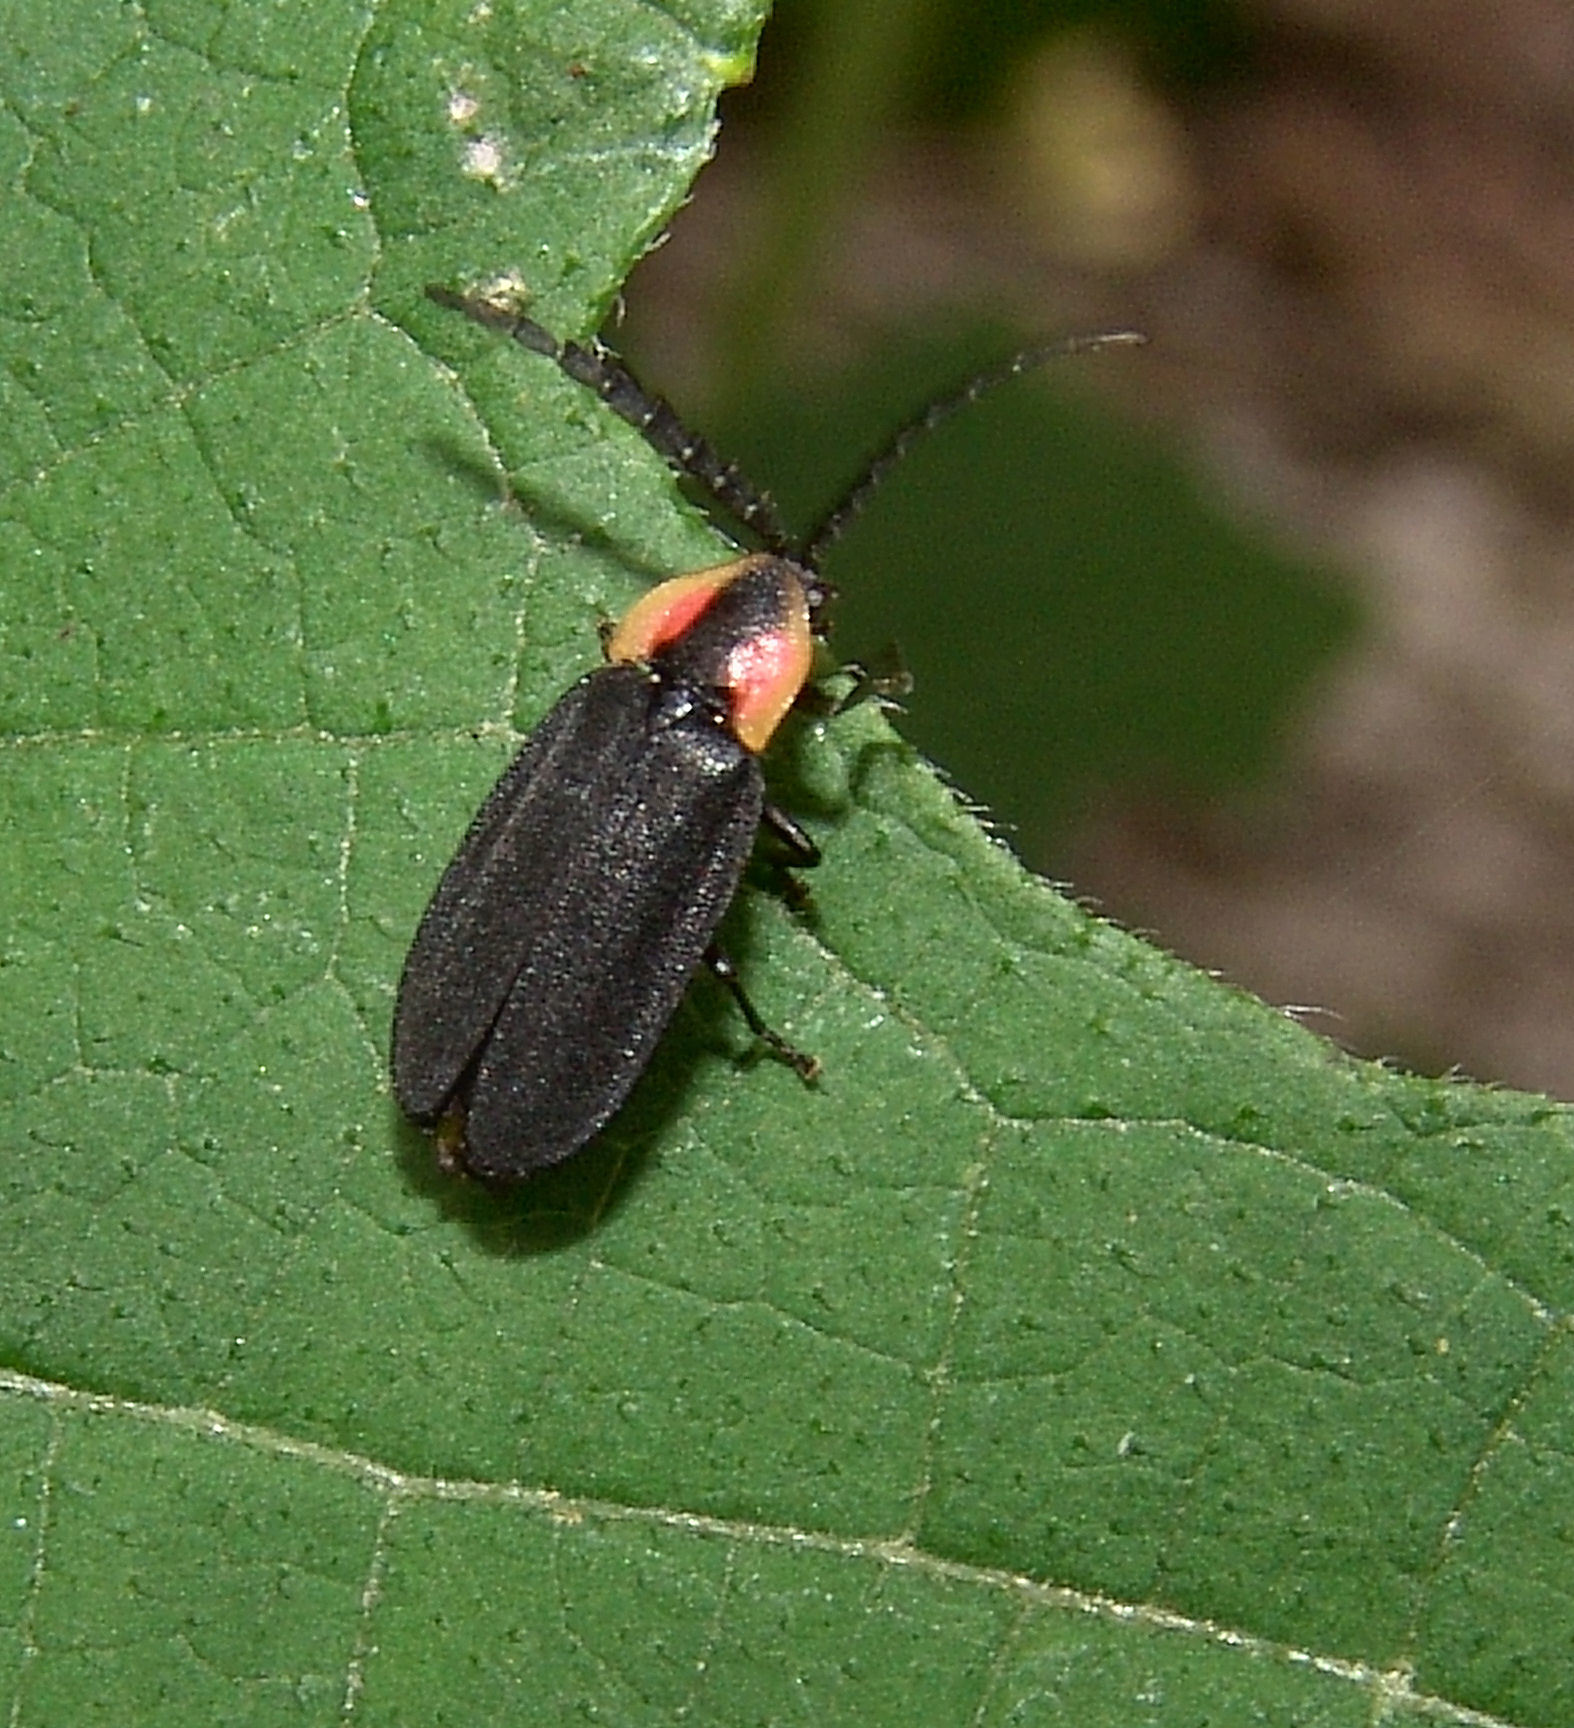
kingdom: Animalia
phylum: Arthropoda
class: Insecta
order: Coleoptera
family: Lampyridae
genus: Lucidota
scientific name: Lucidota atra
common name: Black firefly
